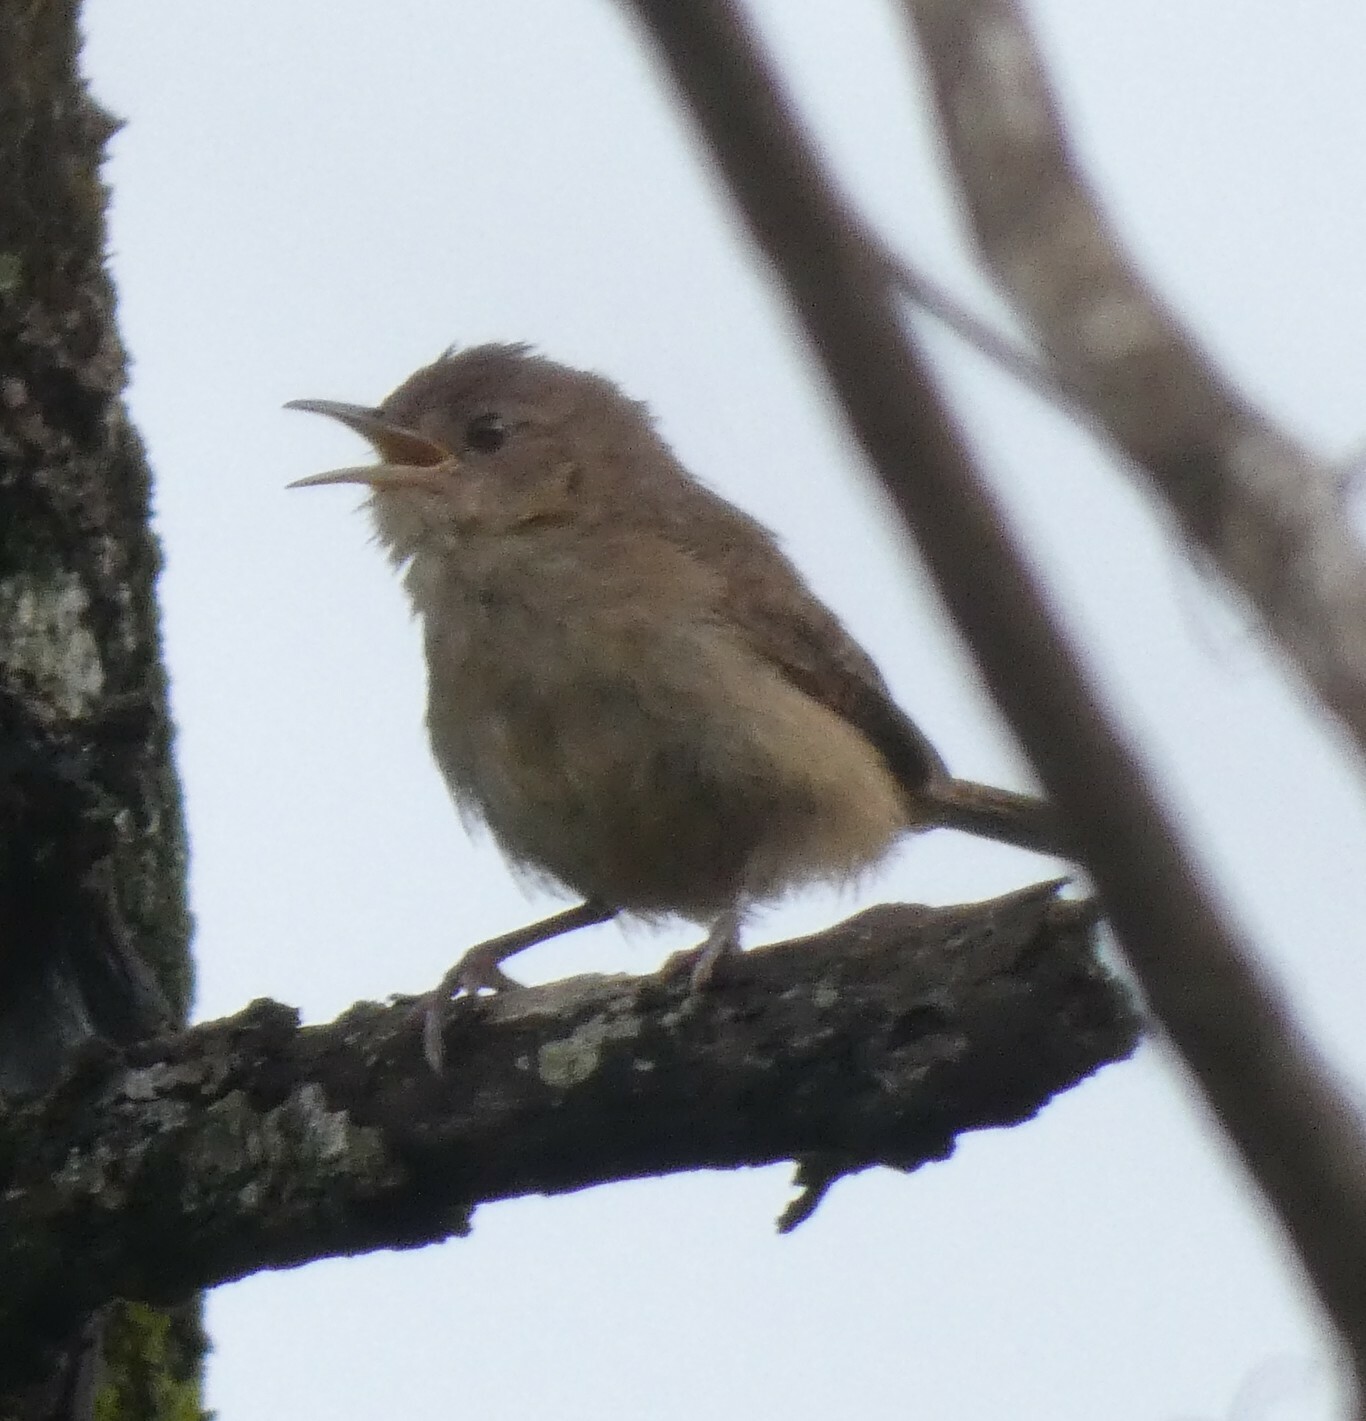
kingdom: Animalia
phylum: Chordata
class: Aves
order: Passeriformes
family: Troglodytidae
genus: Troglodytes
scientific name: Troglodytes aedon
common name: House wren
